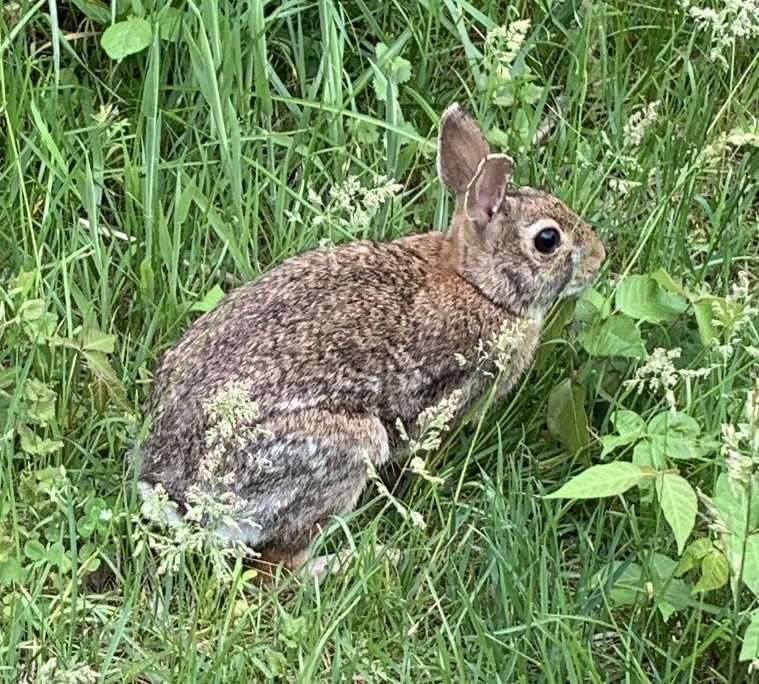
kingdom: Animalia
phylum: Chordata
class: Mammalia
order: Lagomorpha
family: Leporidae
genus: Sylvilagus
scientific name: Sylvilagus floridanus
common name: Eastern cottontail
